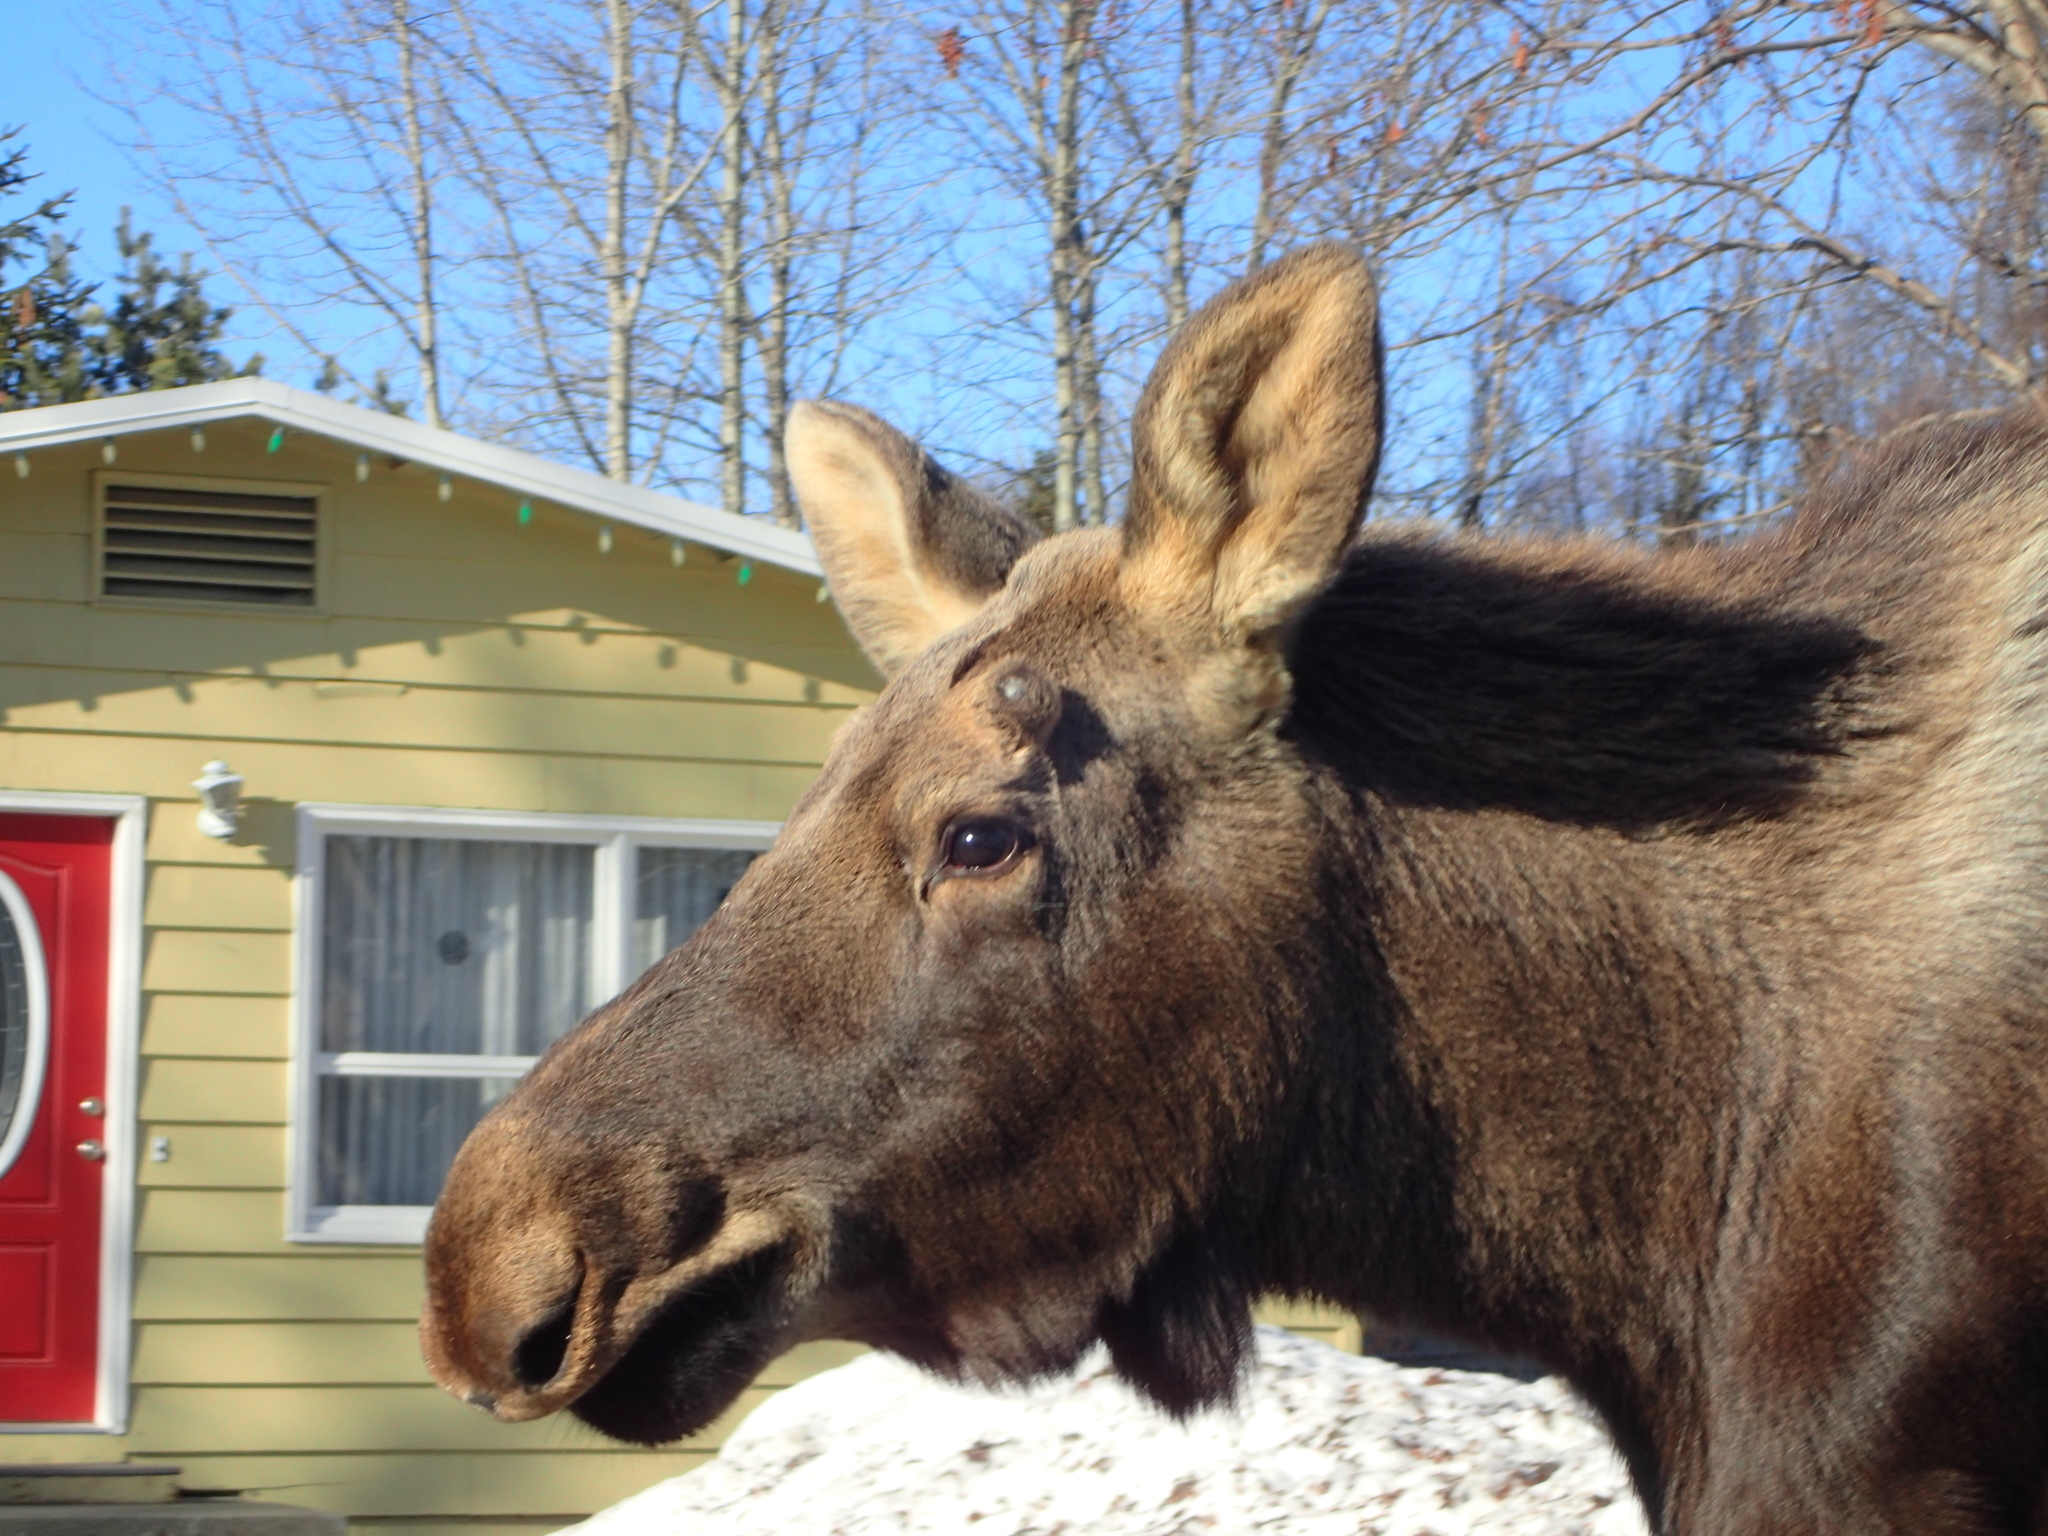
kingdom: Animalia
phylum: Chordata
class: Mammalia
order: Artiodactyla
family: Cervidae
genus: Alces
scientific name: Alces alces
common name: Moose
